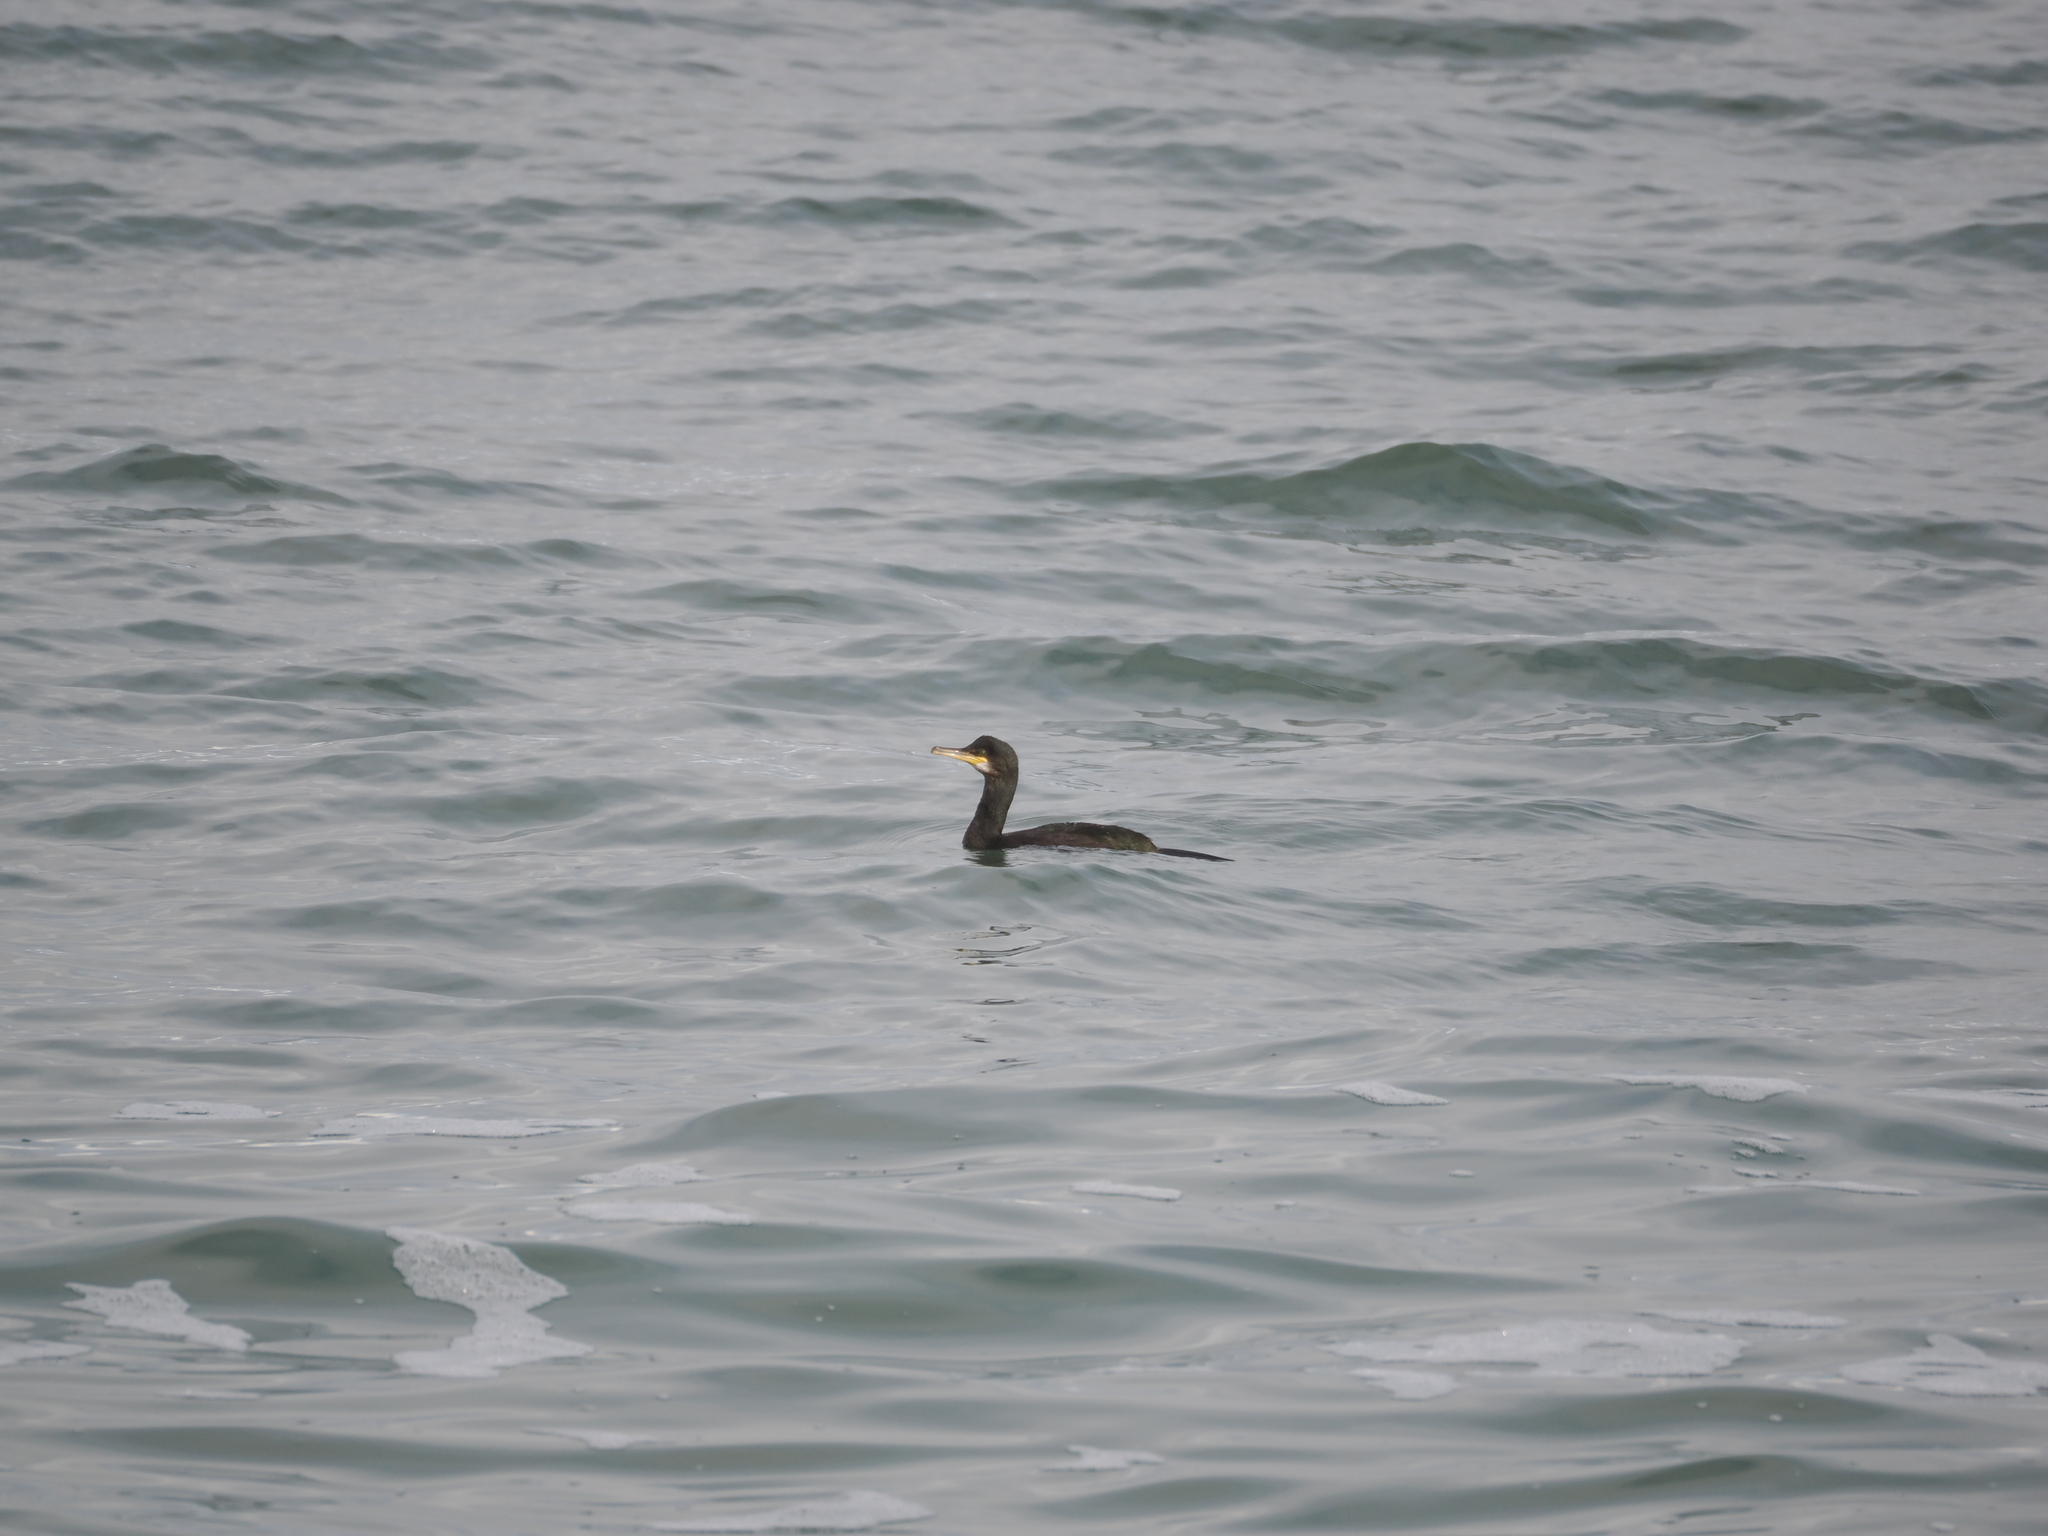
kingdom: Animalia
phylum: Chordata
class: Aves
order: Suliformes
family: Phalacrocoracidae
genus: Phalacrocorax
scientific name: Phalacrocorax aristotelis
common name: European shag
